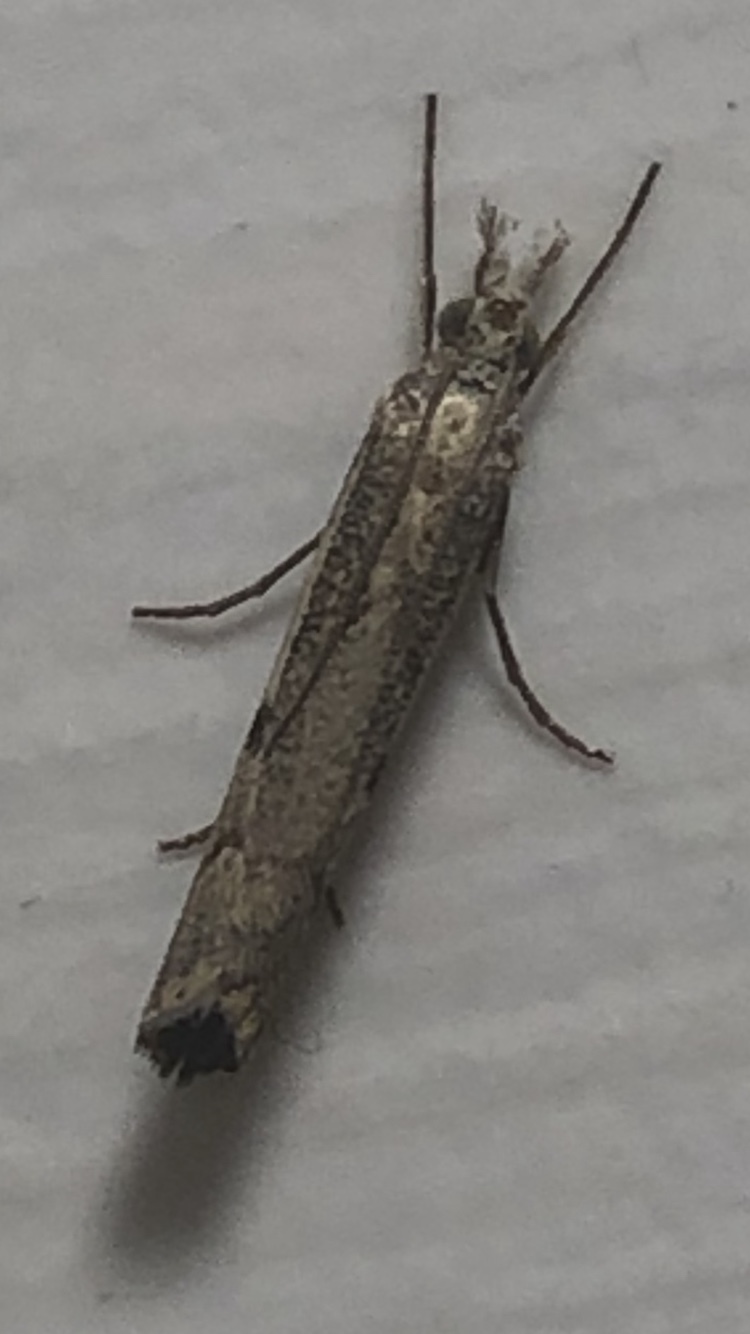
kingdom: Animalia
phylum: Arthropoda
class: Insecta
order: Lepidoptera
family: Crambidae
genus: Agriphila
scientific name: Agriphila geniculea
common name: Elbow-stripe grass-veneer
